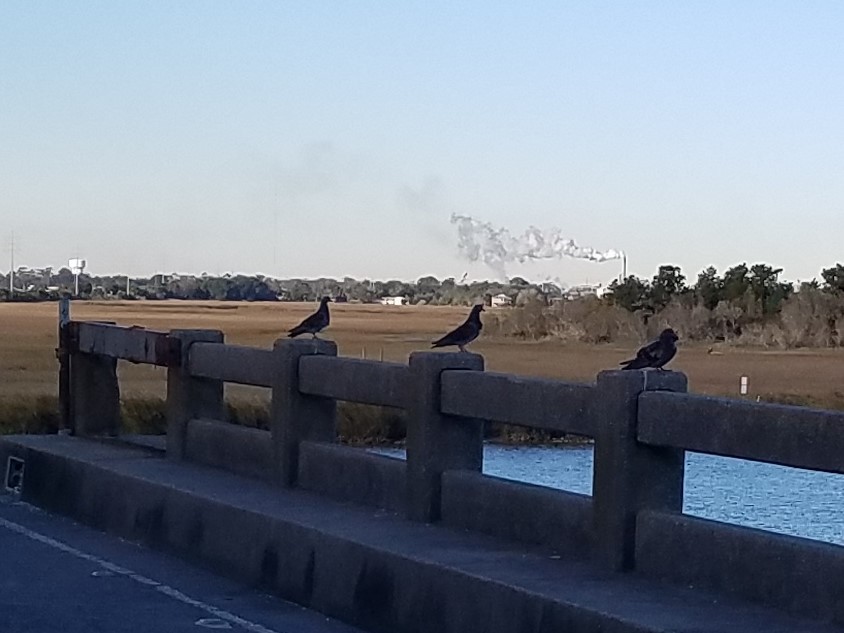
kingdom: Animalia
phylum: Chordata
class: Aves
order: Columbiformes
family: Columbidae
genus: Columba
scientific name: Columba livia
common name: Rock pigeon
